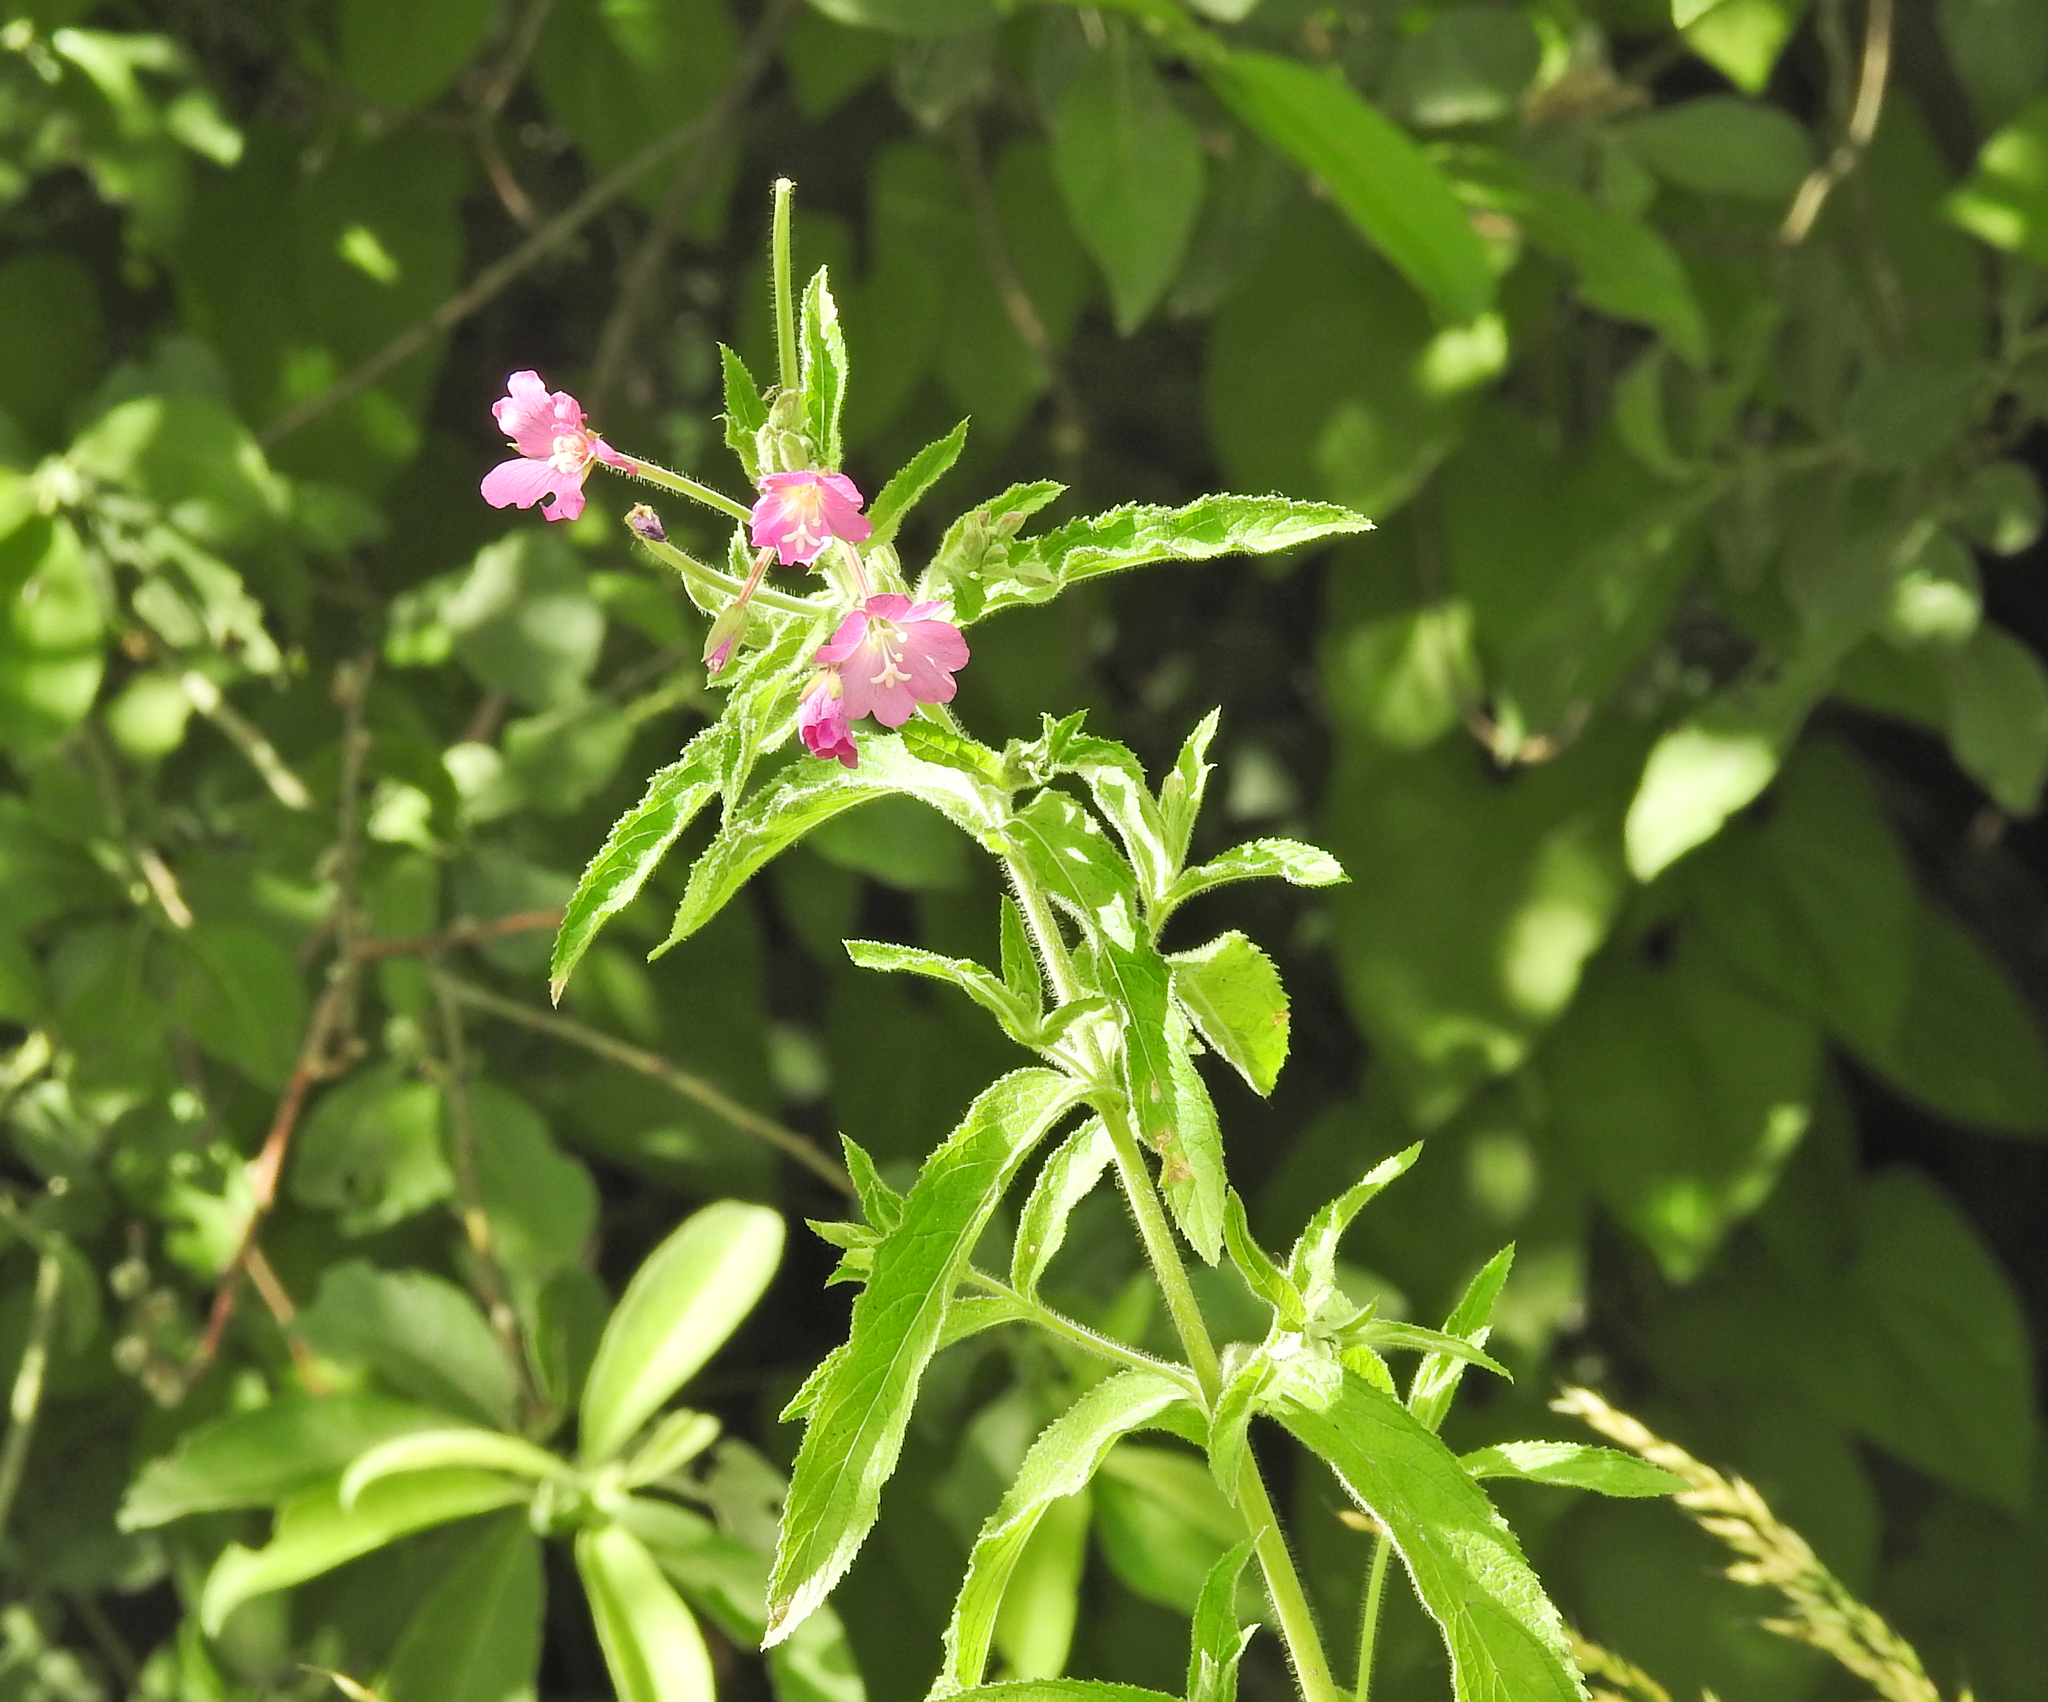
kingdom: Plantae
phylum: Tracheophyta
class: Magnoliopsida
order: Myrtales
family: Onagraceae
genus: Epilobium
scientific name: Epilobium hirsutum
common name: Great willowherb
